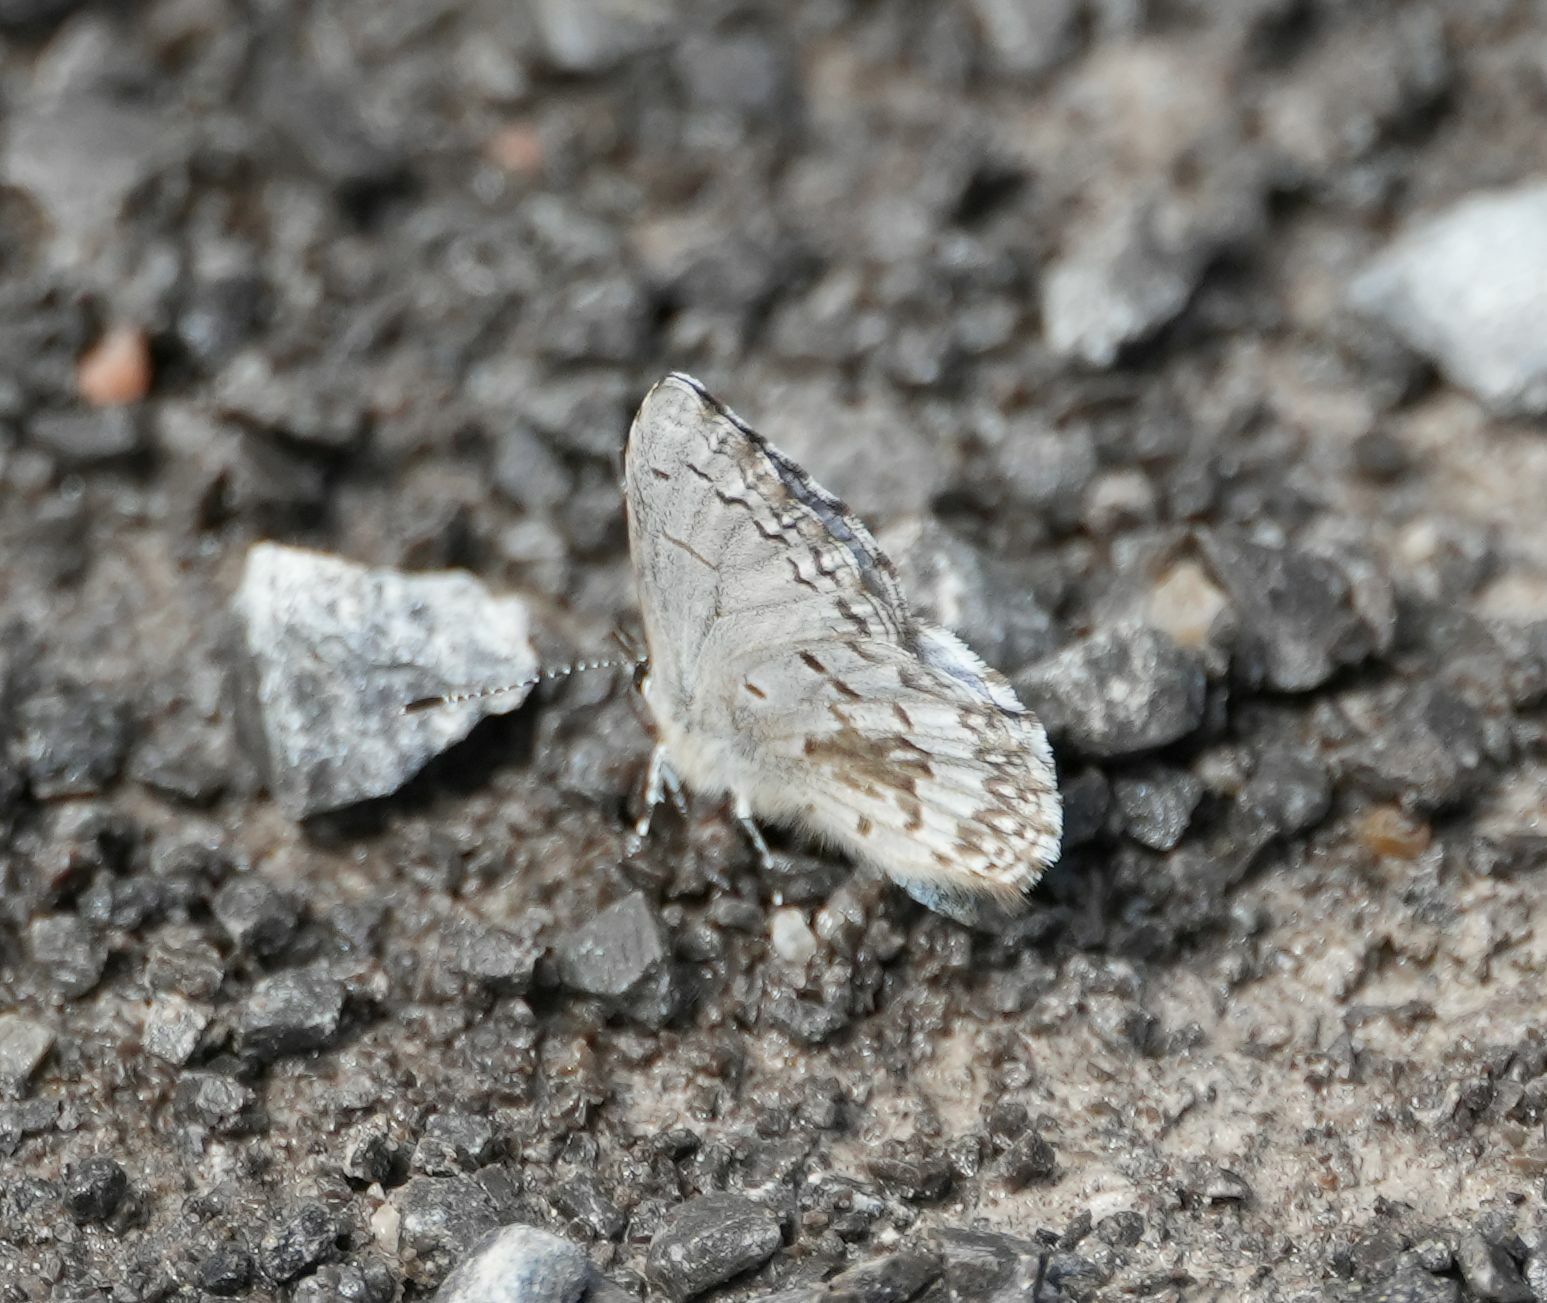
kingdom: Animalia
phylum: Arthropoda
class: Insecta
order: Lepidoptera
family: Lycaenidae
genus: Celastrina
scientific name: Celastrina lucia
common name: Lucia azure
